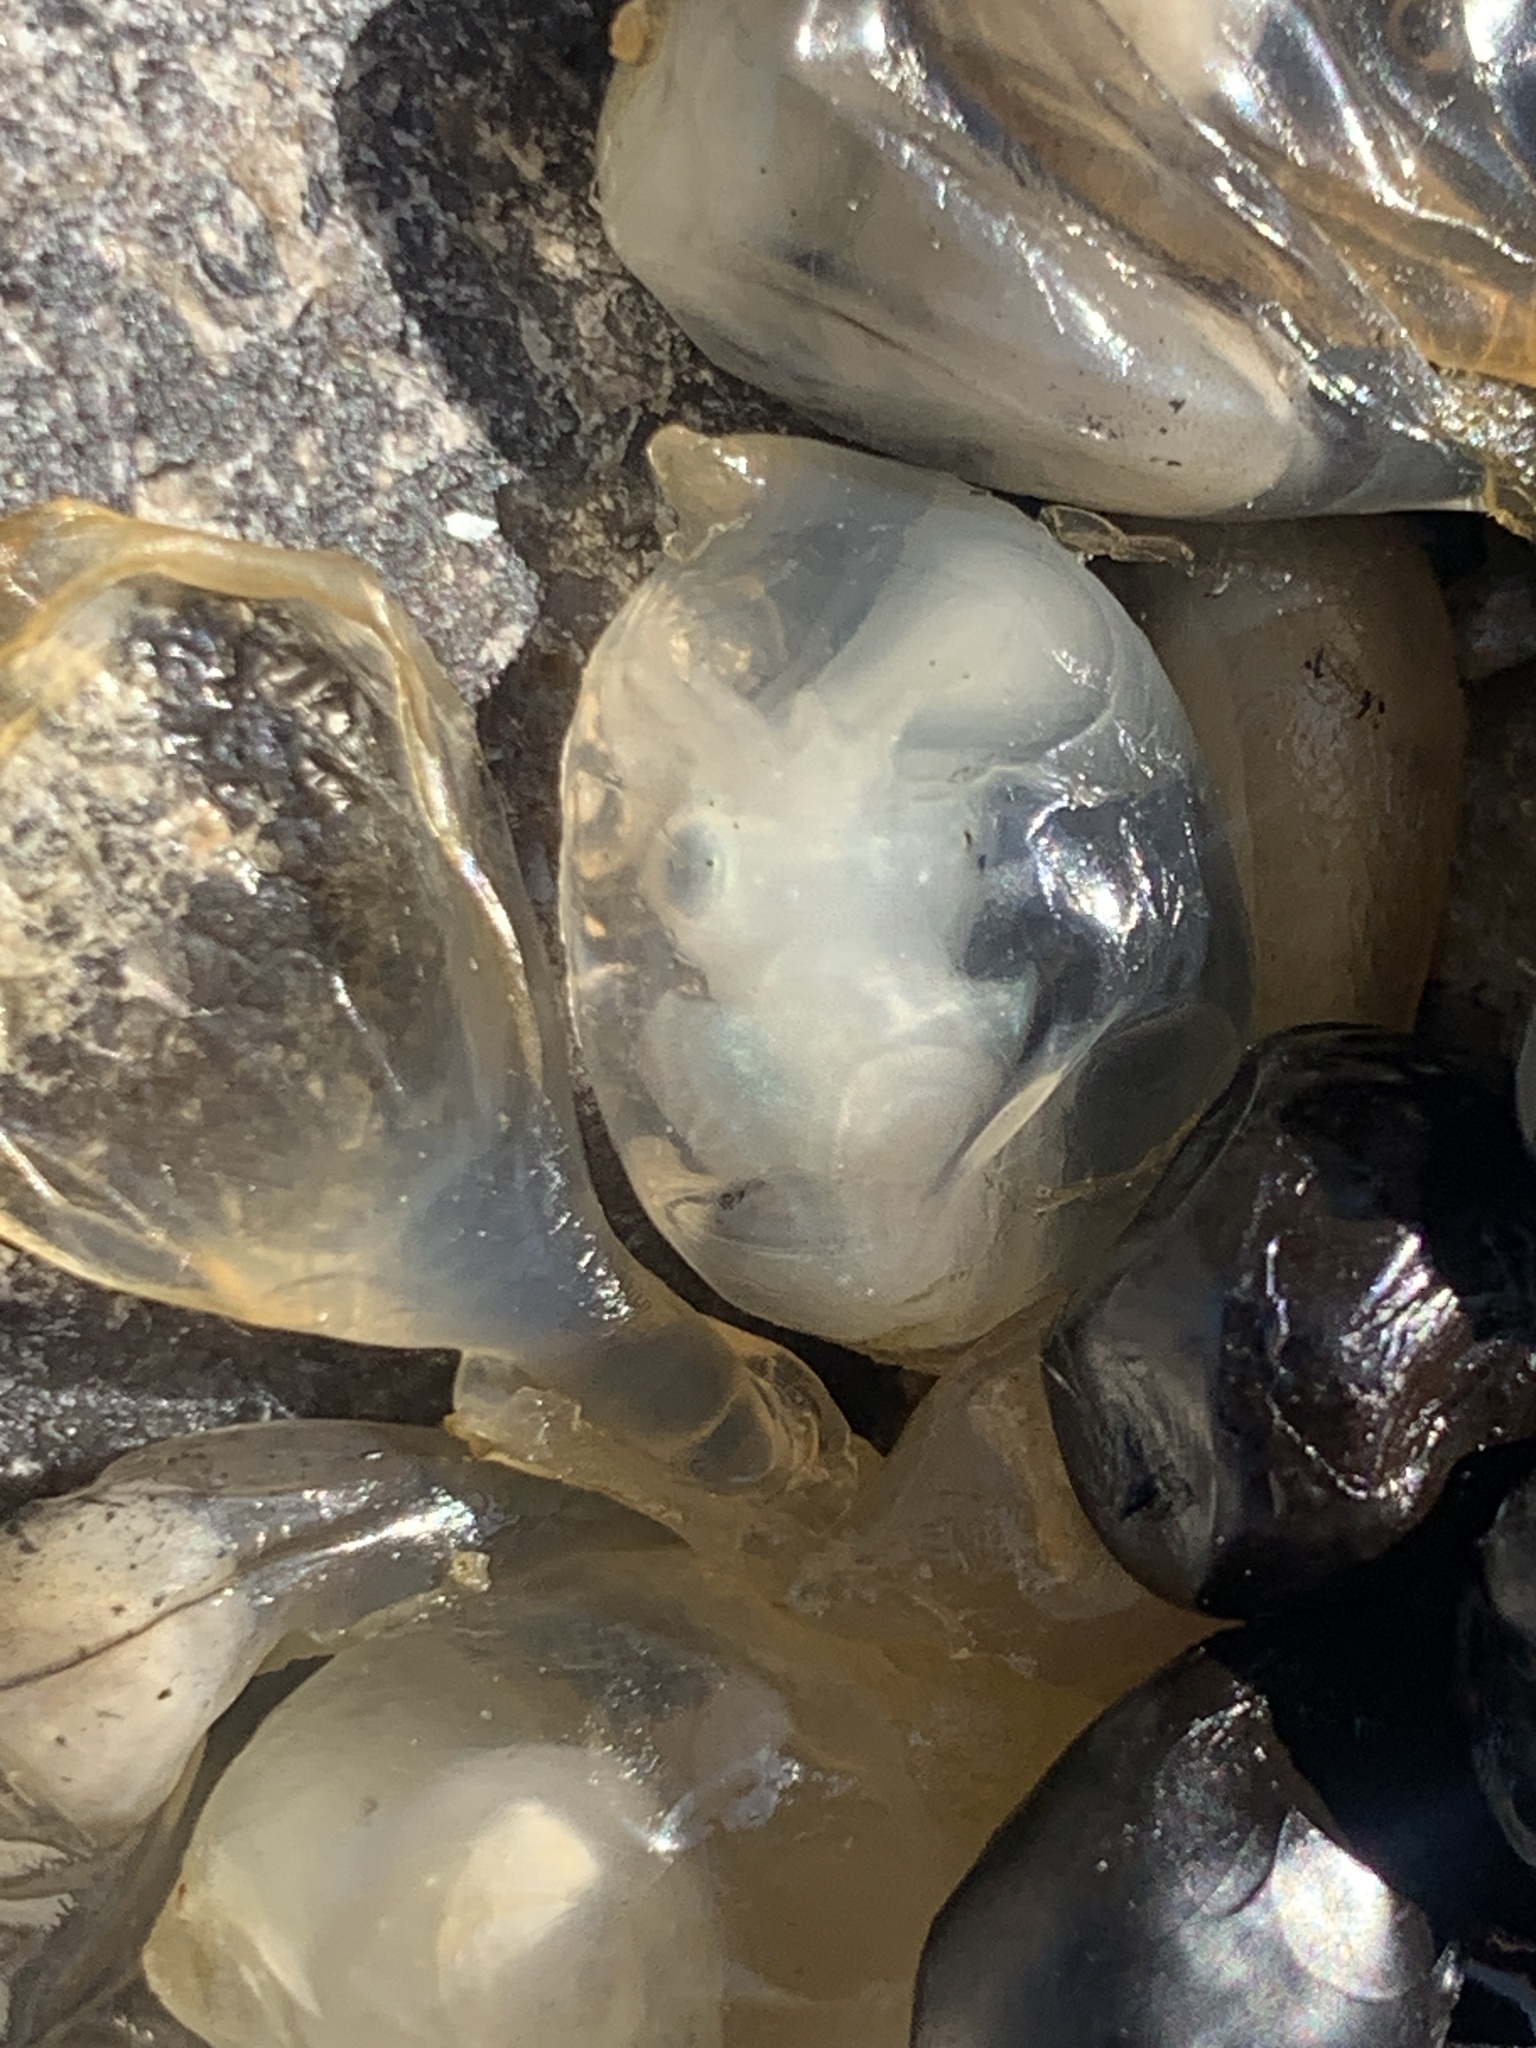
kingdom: Animalia
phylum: Mollusca
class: Cephalopoda
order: Sepiida
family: Sepiidae
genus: Sepia
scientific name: Sepia officinalis
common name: Common cuttlefish
